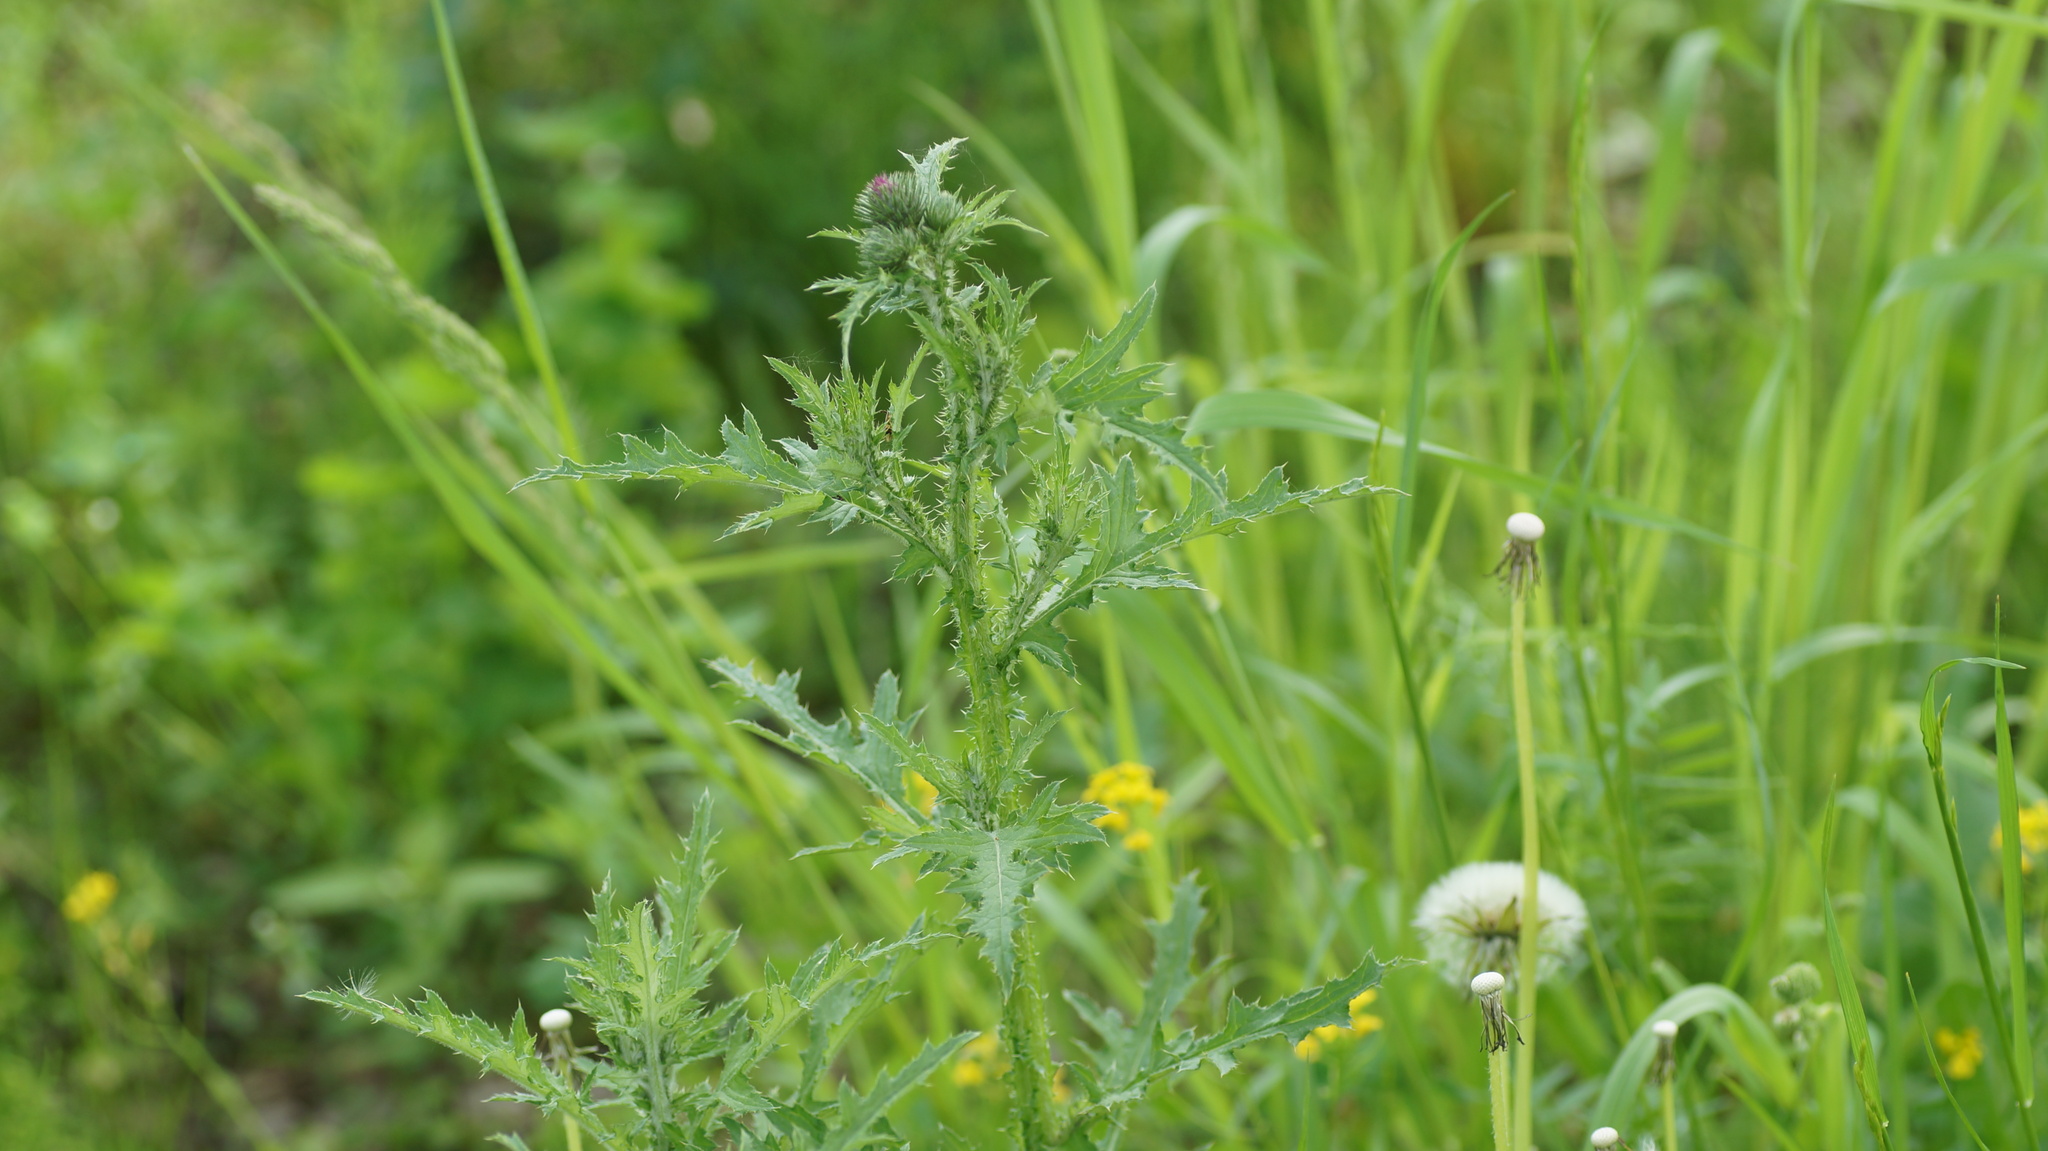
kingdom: Plantae
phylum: Tracheophyta
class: Magnoliopsida
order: Asterales
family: Asteraceae
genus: Carduus
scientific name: Carduus crispus
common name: Welted thistle
